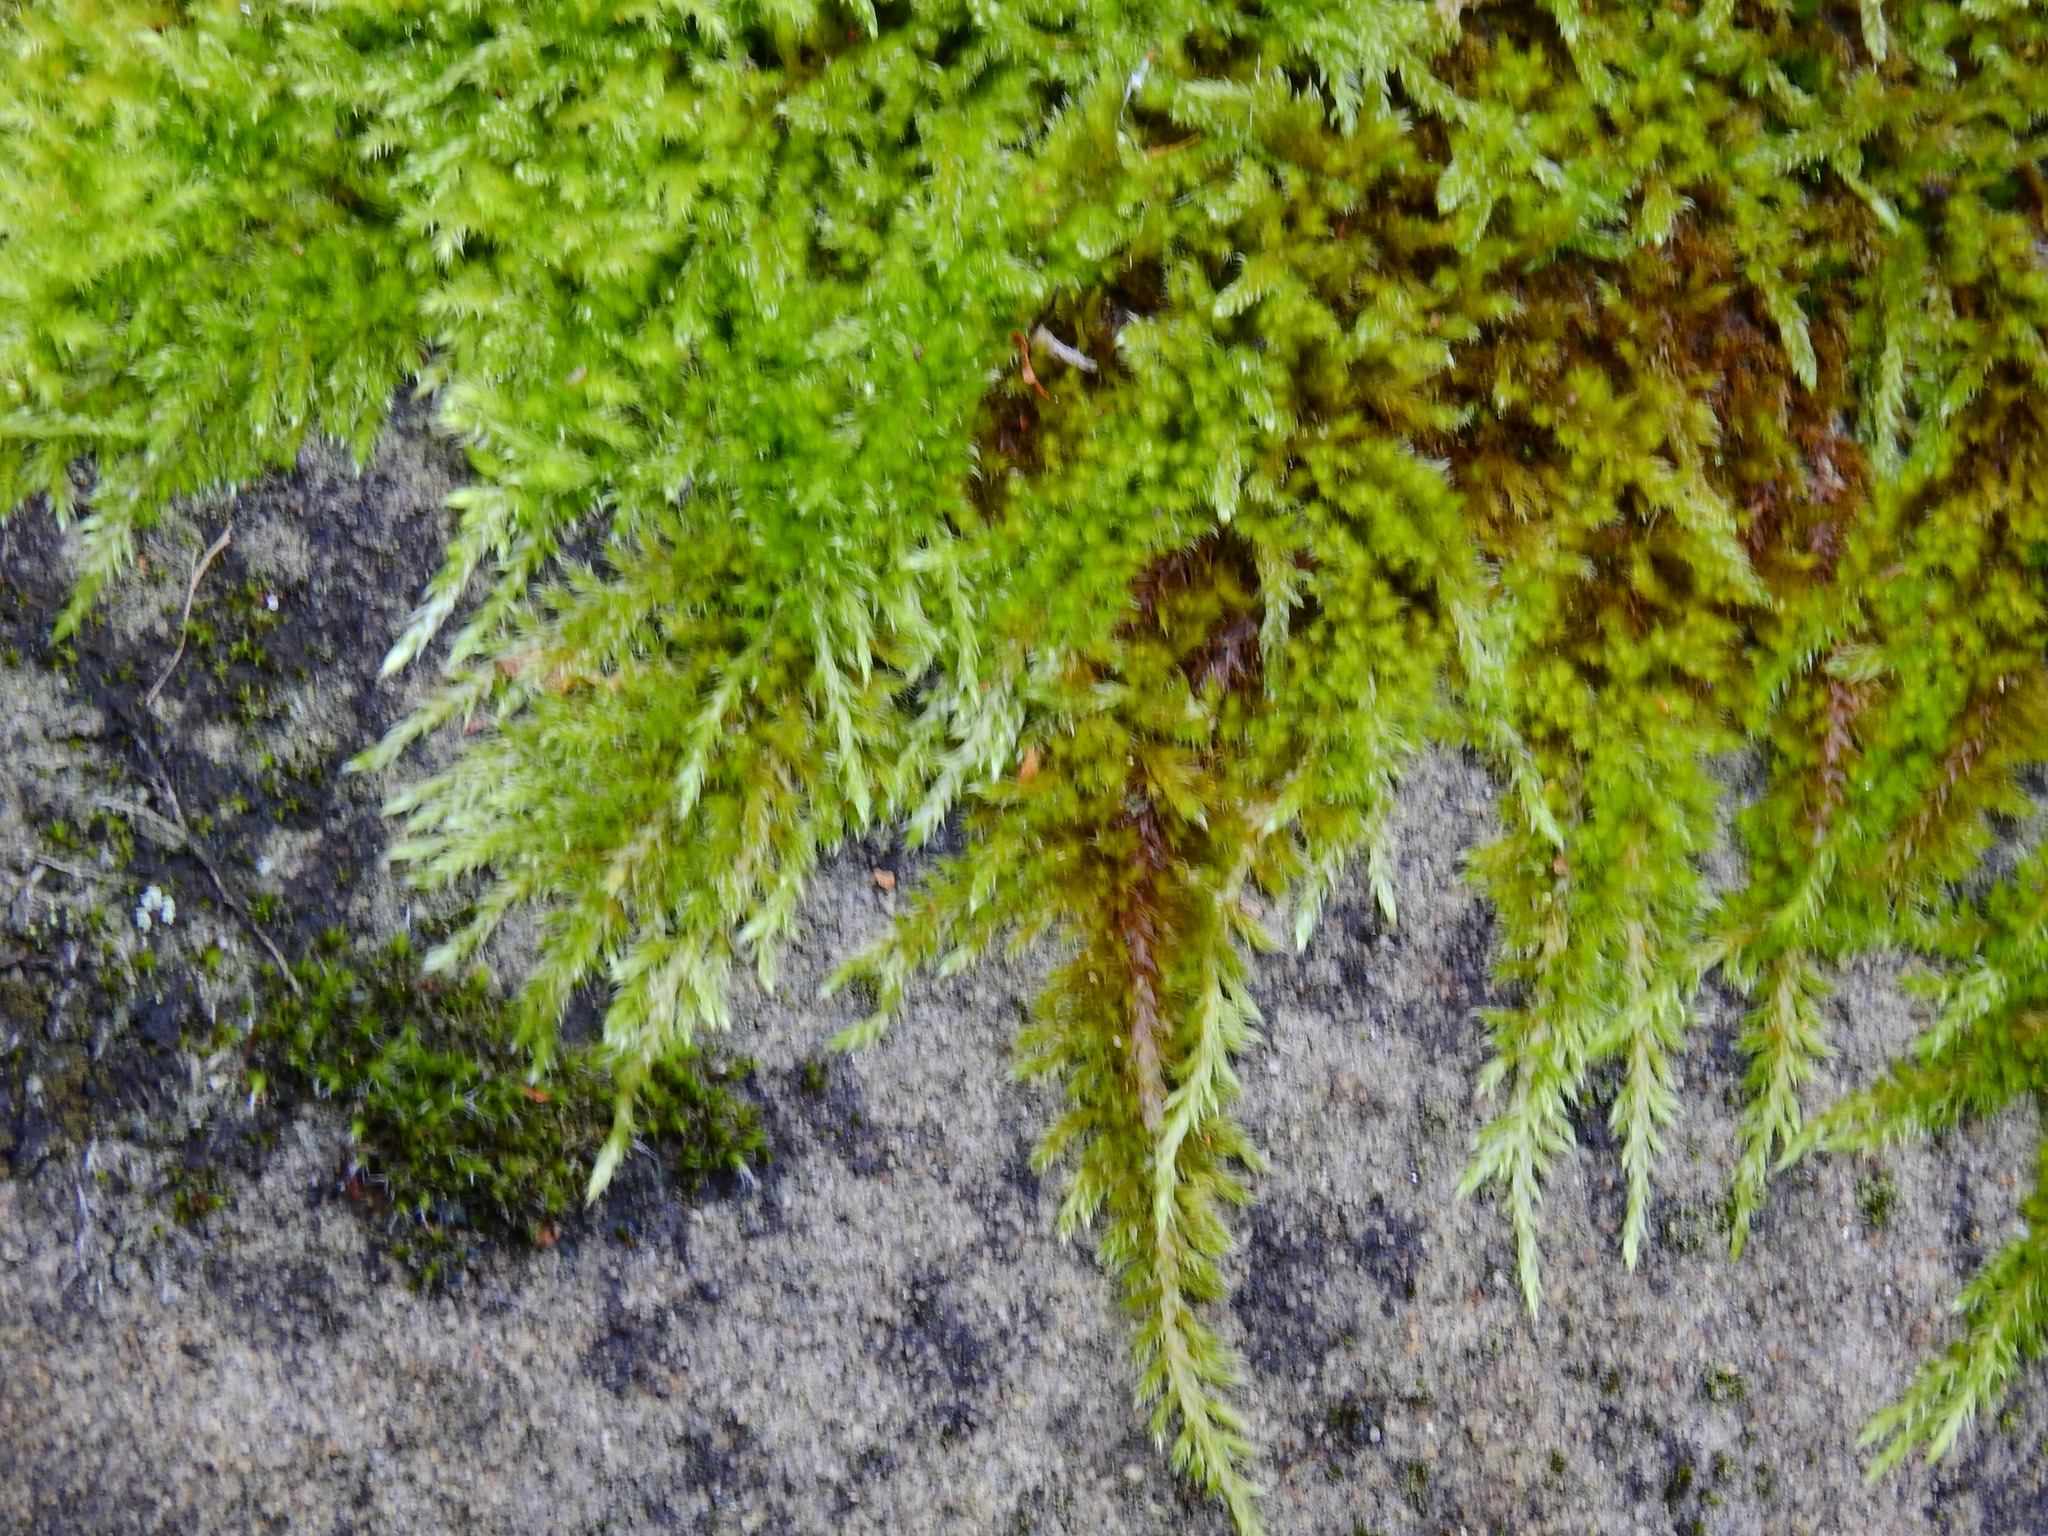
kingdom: Plantae
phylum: Bryophyta
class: Bryopsida
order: Hypnales
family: Brachytheciaceae
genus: Homalothecium
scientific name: Homalothecium sericeum
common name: Silky wall feather-moss
